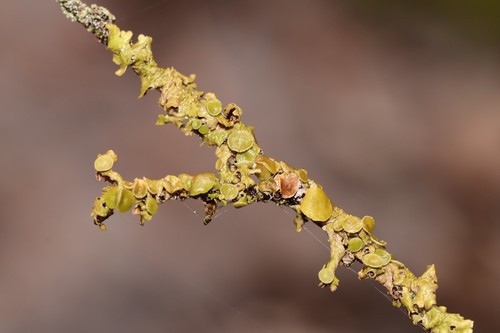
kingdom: Fungi
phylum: Ascomycota
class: Lecanoromycetes
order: Lecanorales
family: Parmeliaceae
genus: Melanohalea
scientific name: Melanohalea olivacea
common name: Spotted camouflage lichen
